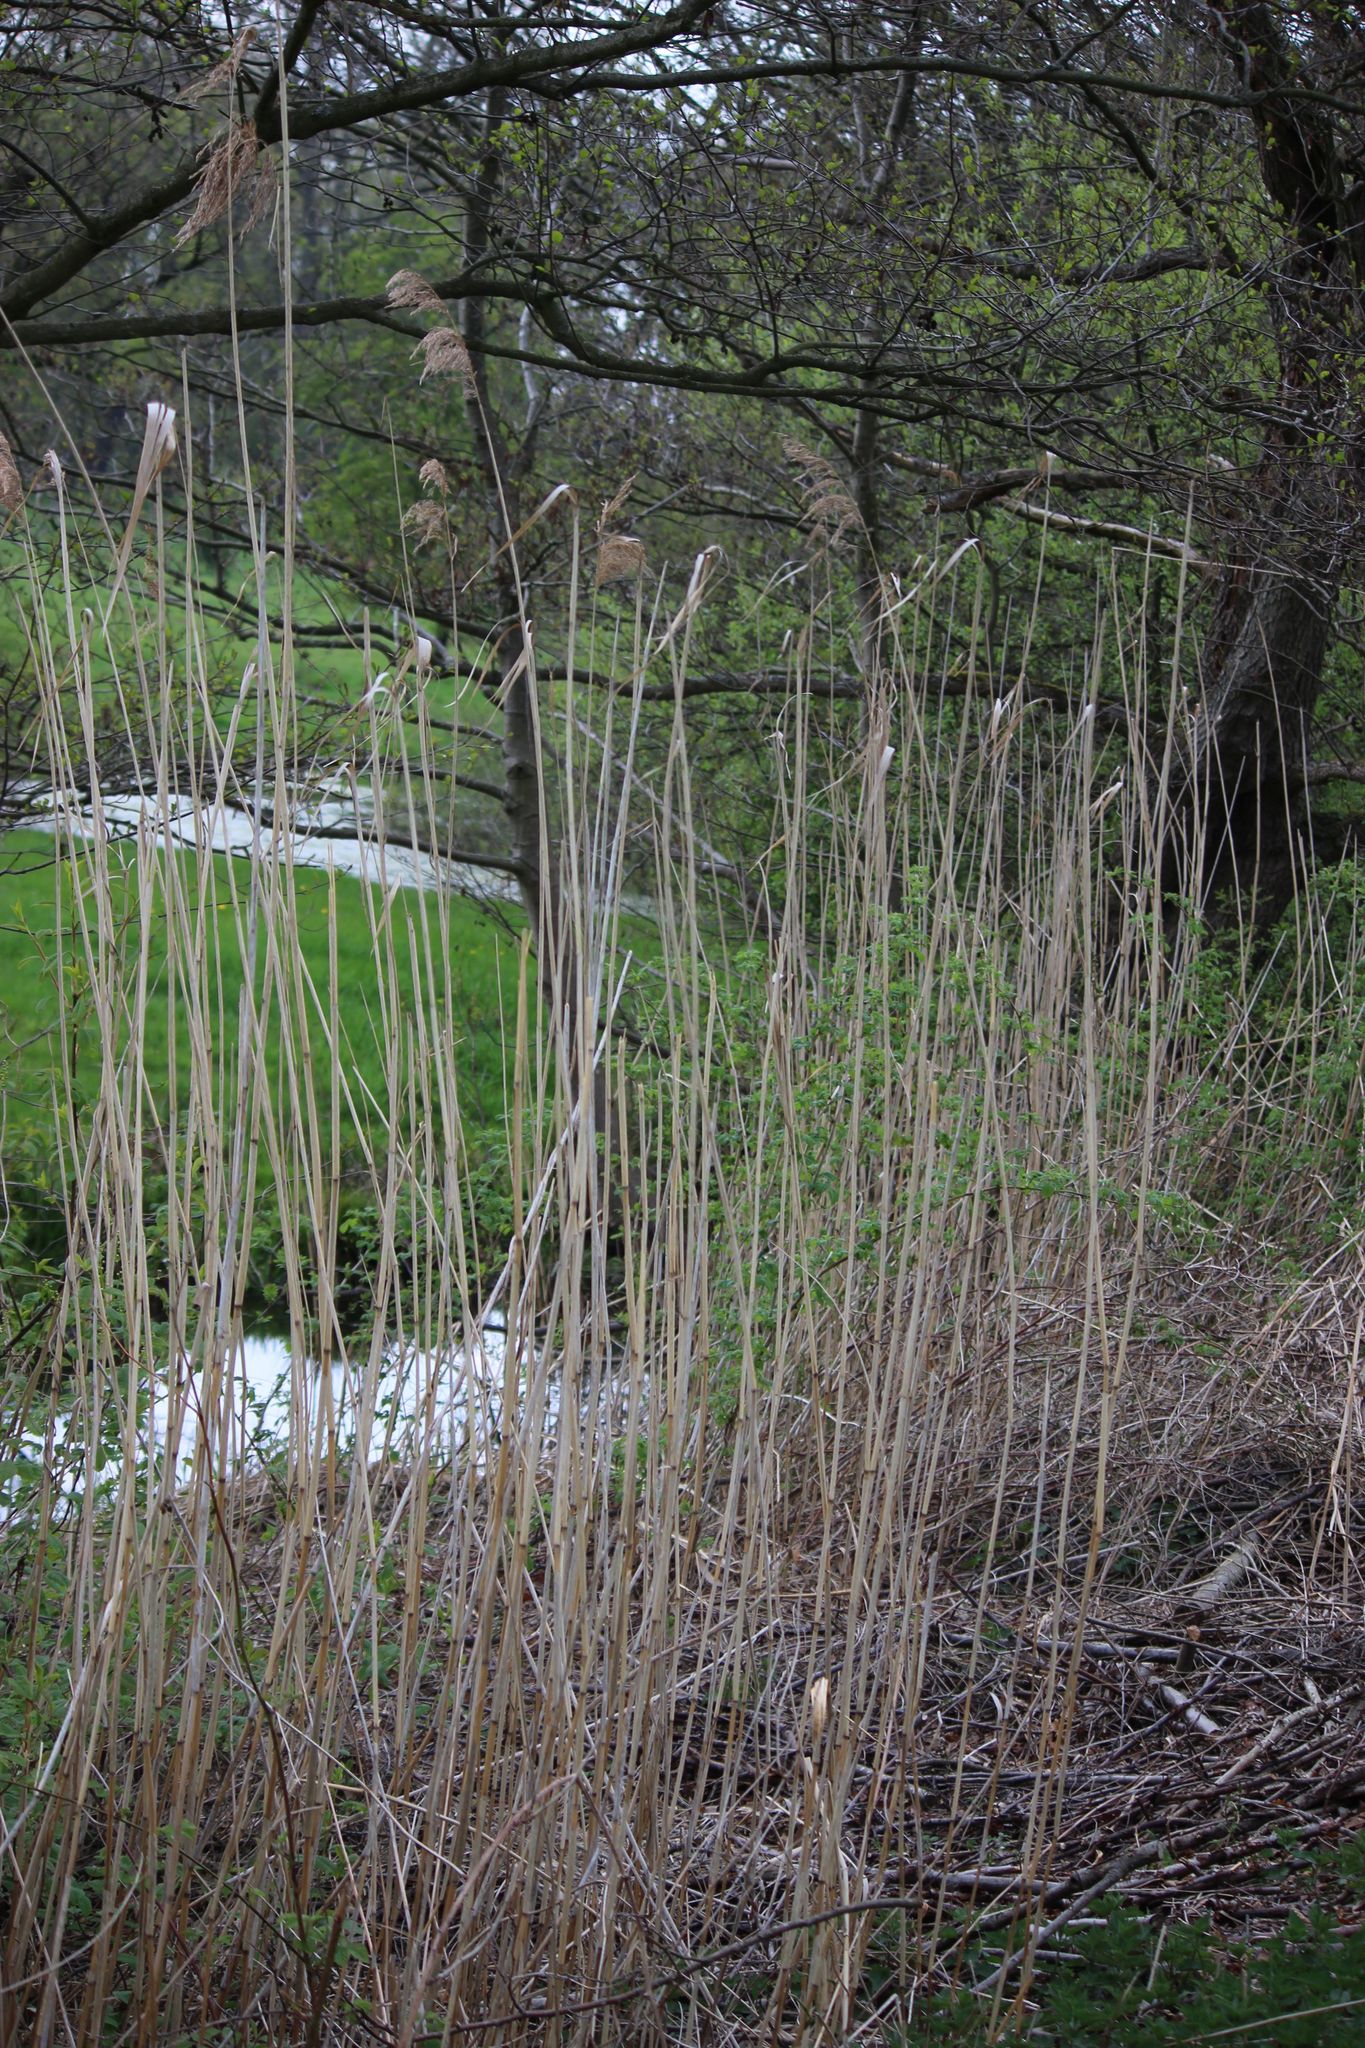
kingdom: Plantae
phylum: Tracheophyta
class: Liliopsida
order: Poales
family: Poaceae
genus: Phragmites
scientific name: Phragmites australis
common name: Common reed
